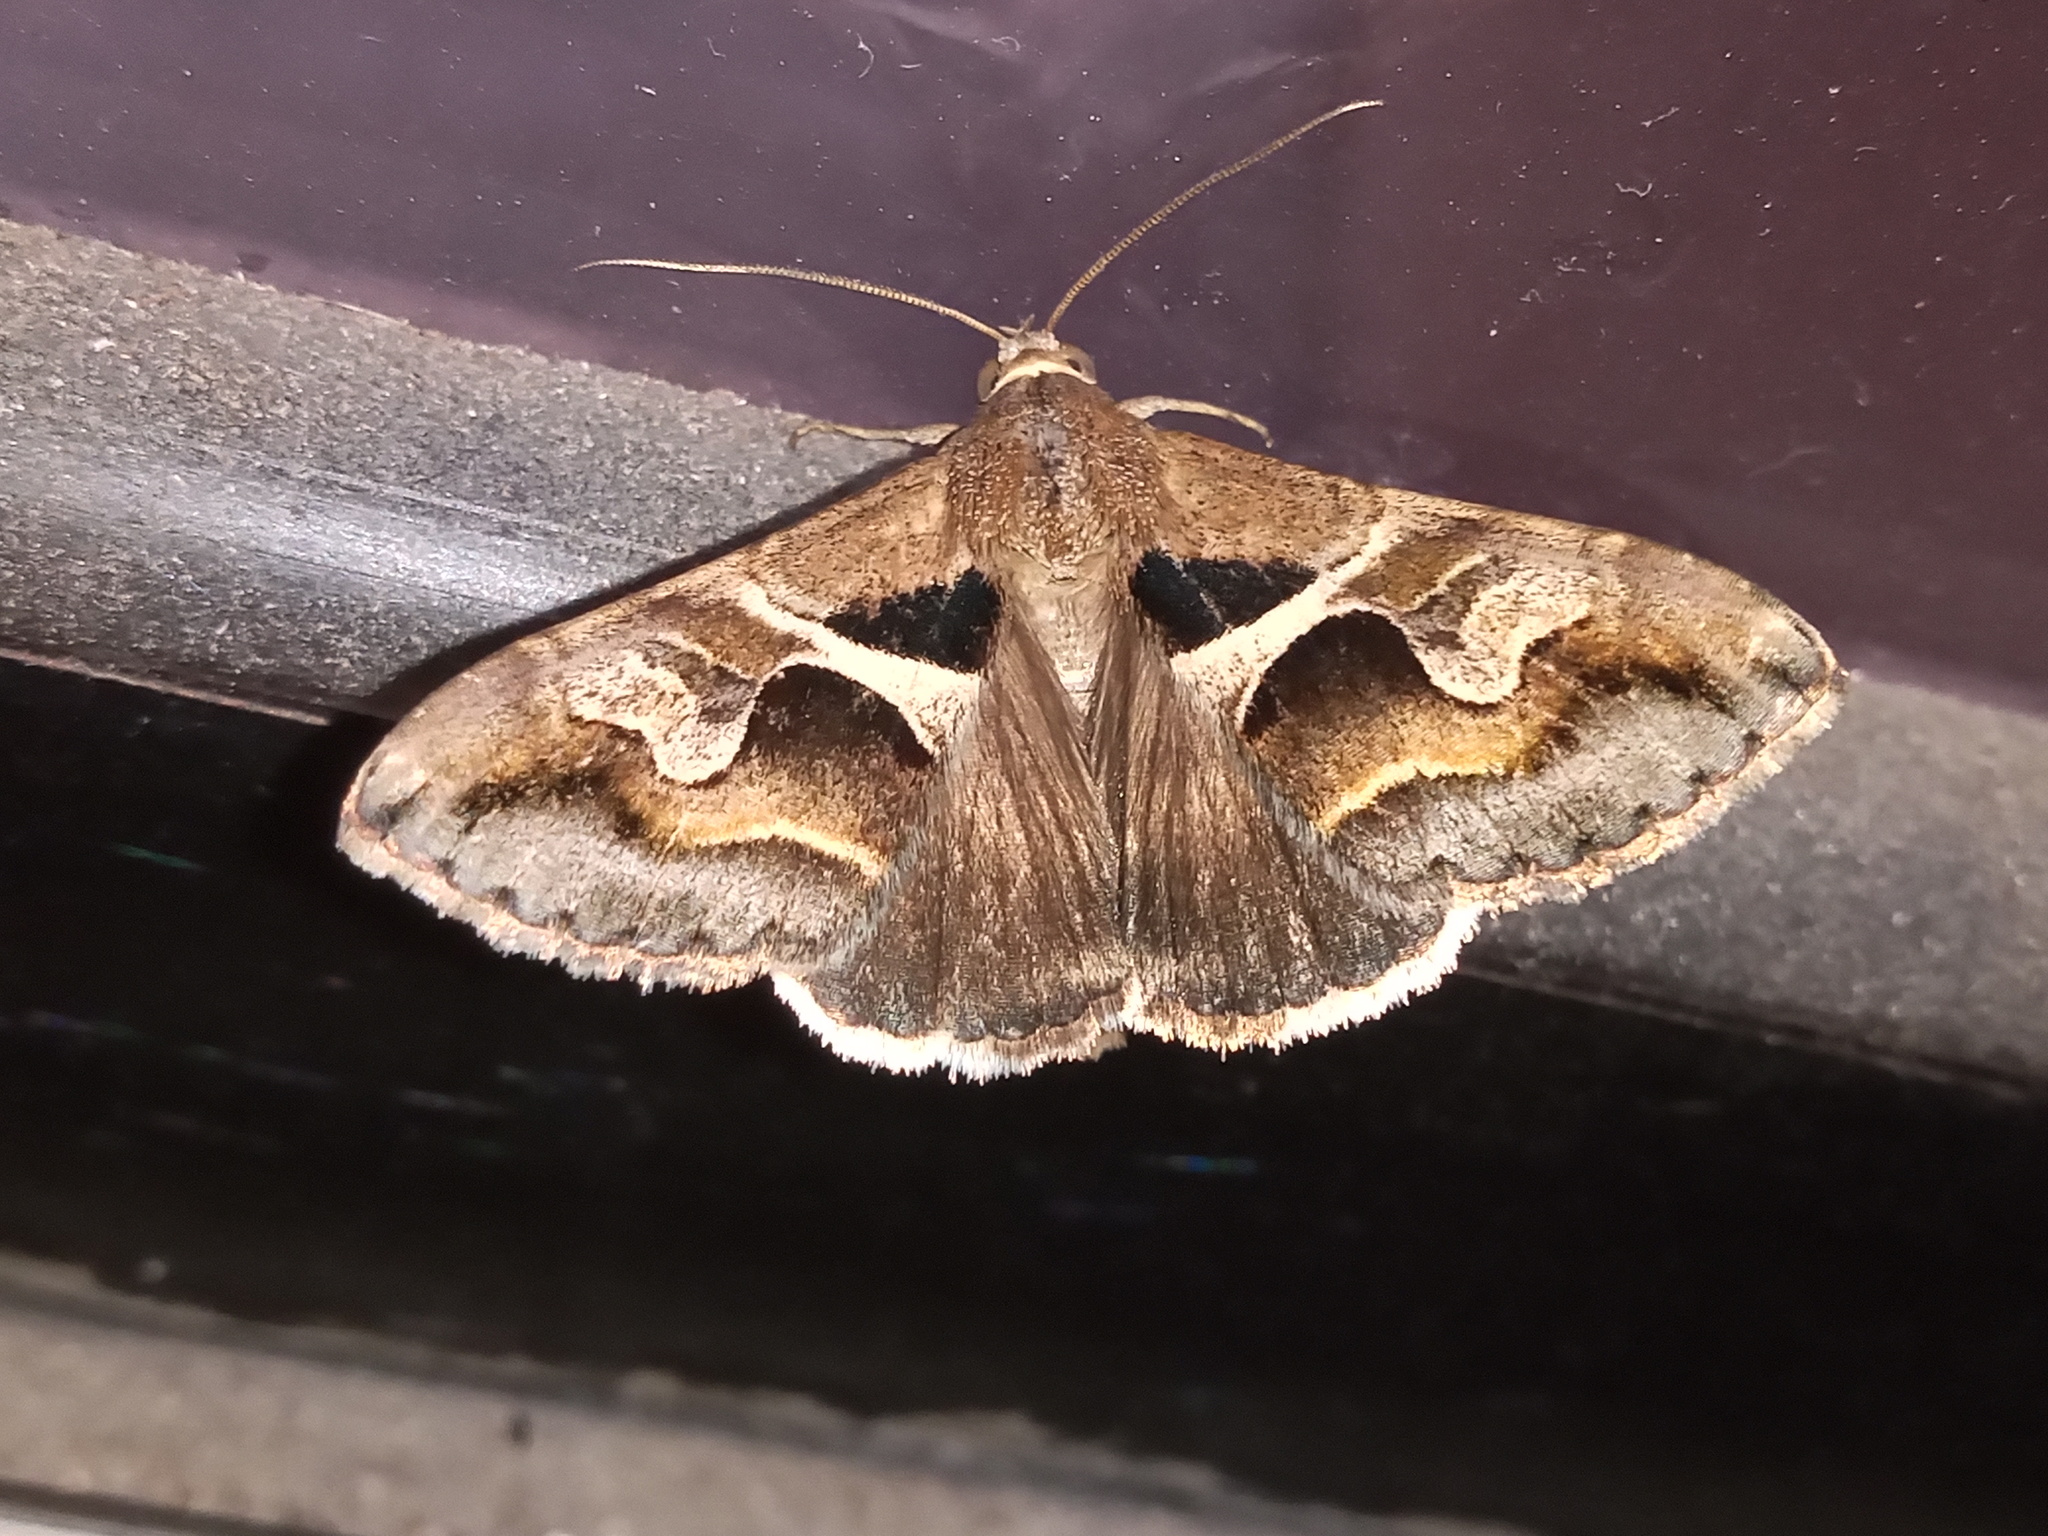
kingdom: Animalia
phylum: Arthropoda
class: Insecta
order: Lepidoptera
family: Erebidae
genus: Melipotis
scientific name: Melipotis cellaris
